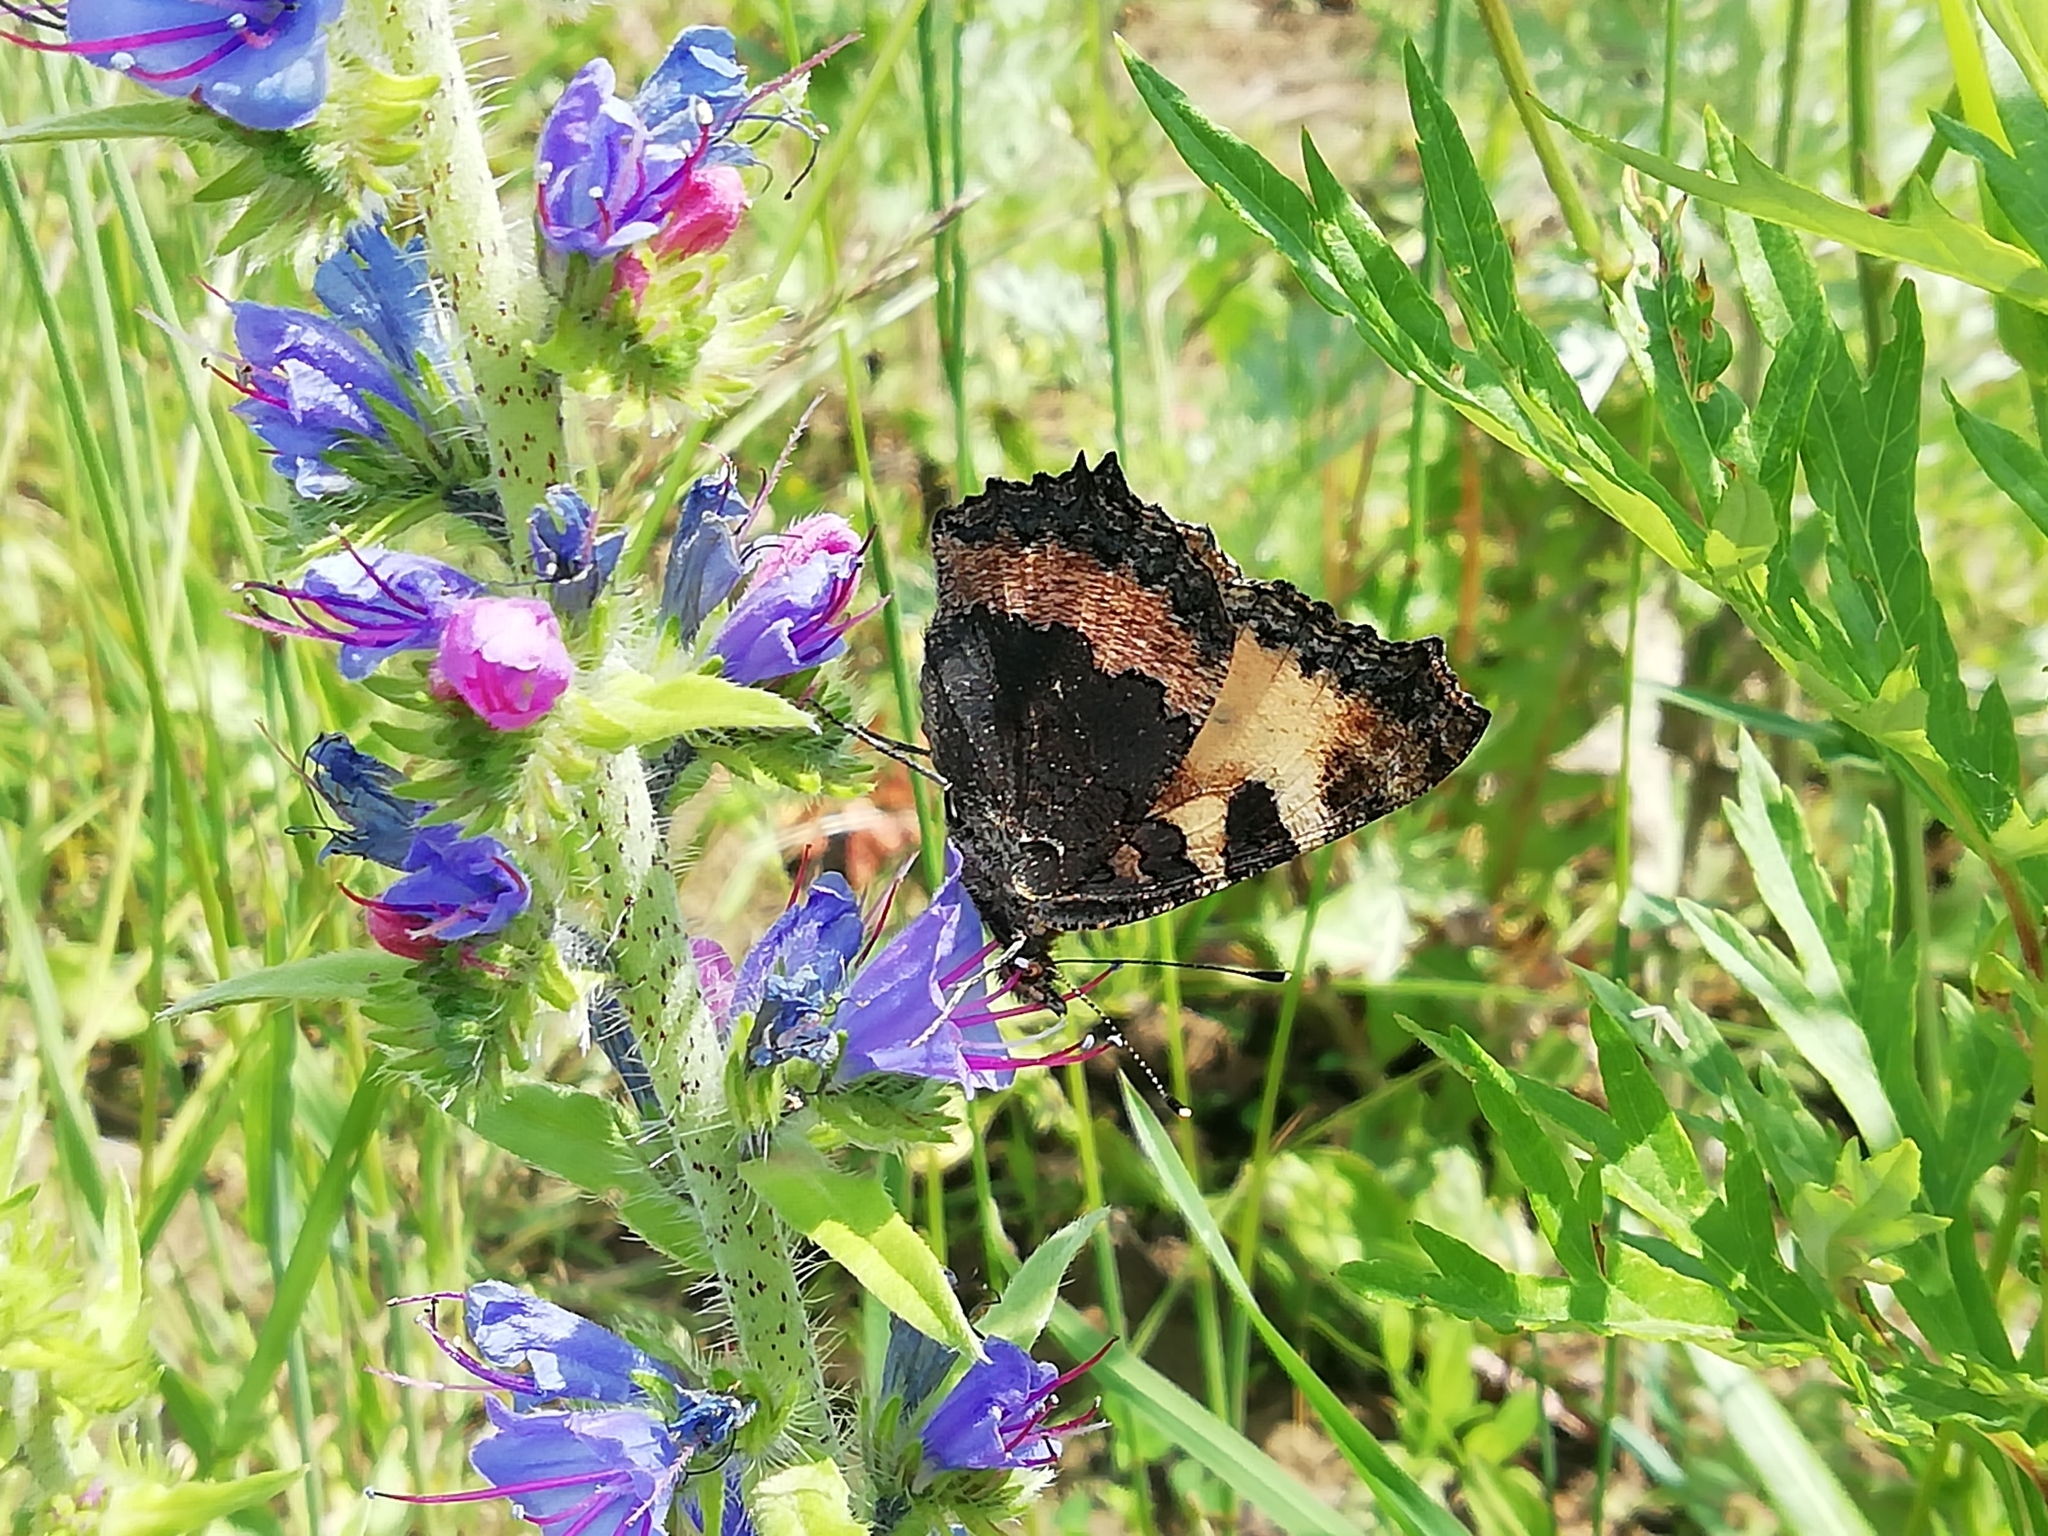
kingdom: Animalia
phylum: Arthropoda
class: Insecta
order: Lepidoptera
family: Nymphalidae
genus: Aglais
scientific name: Aglais urticae
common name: Small tortoiseshell
